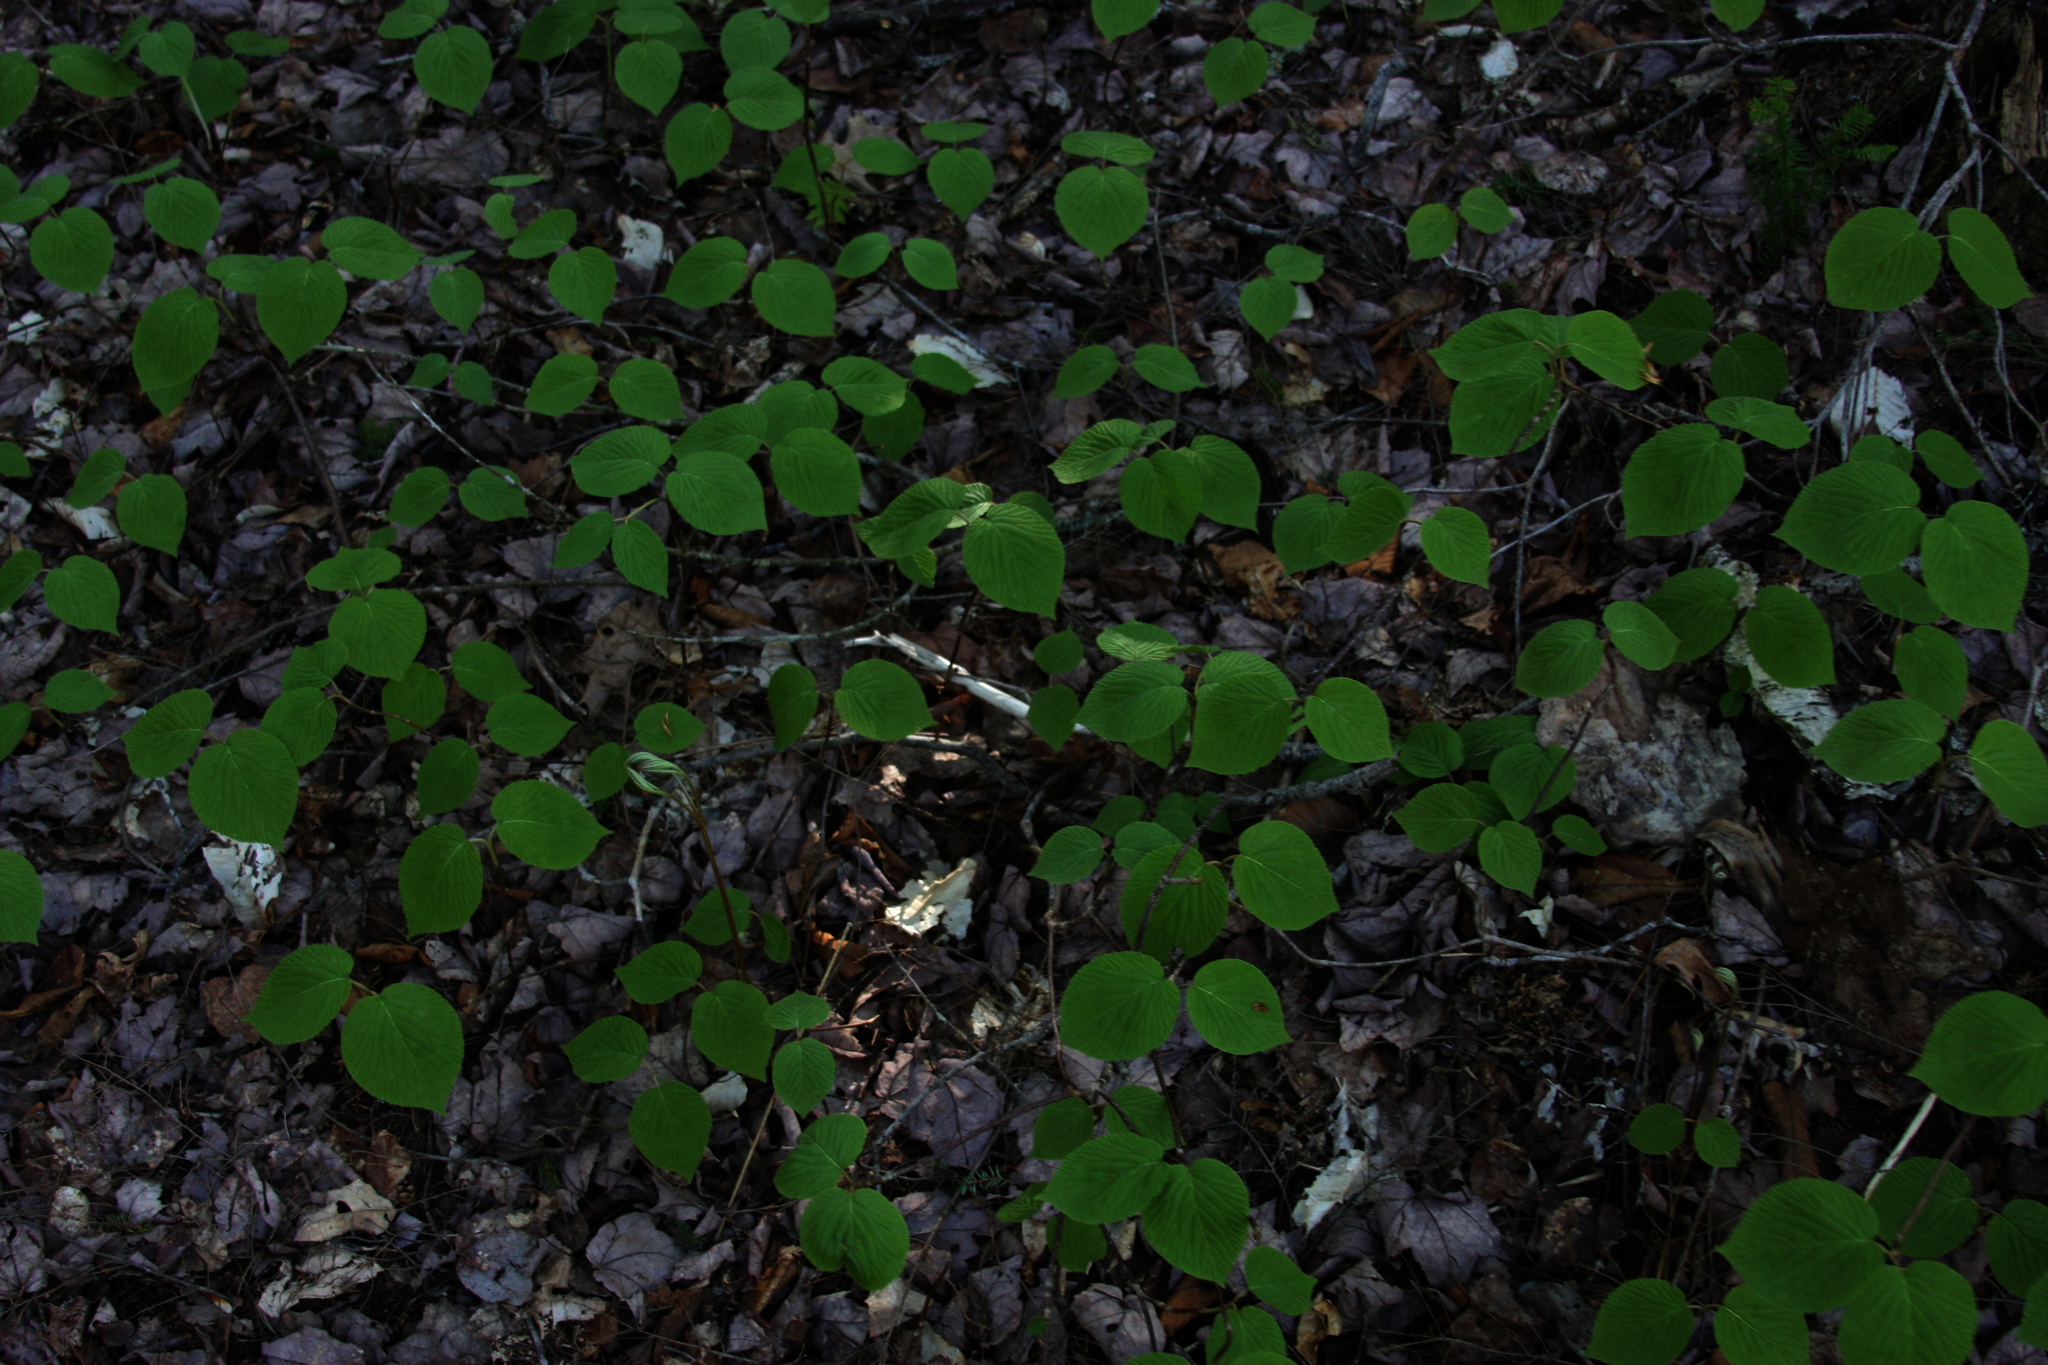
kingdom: Plantae
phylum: Tracheophyta
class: Magnoliopsida
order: Dipsacales
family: Viburnaceae
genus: Viburnum
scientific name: Viburnum lantanoides
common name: Hobblebush
